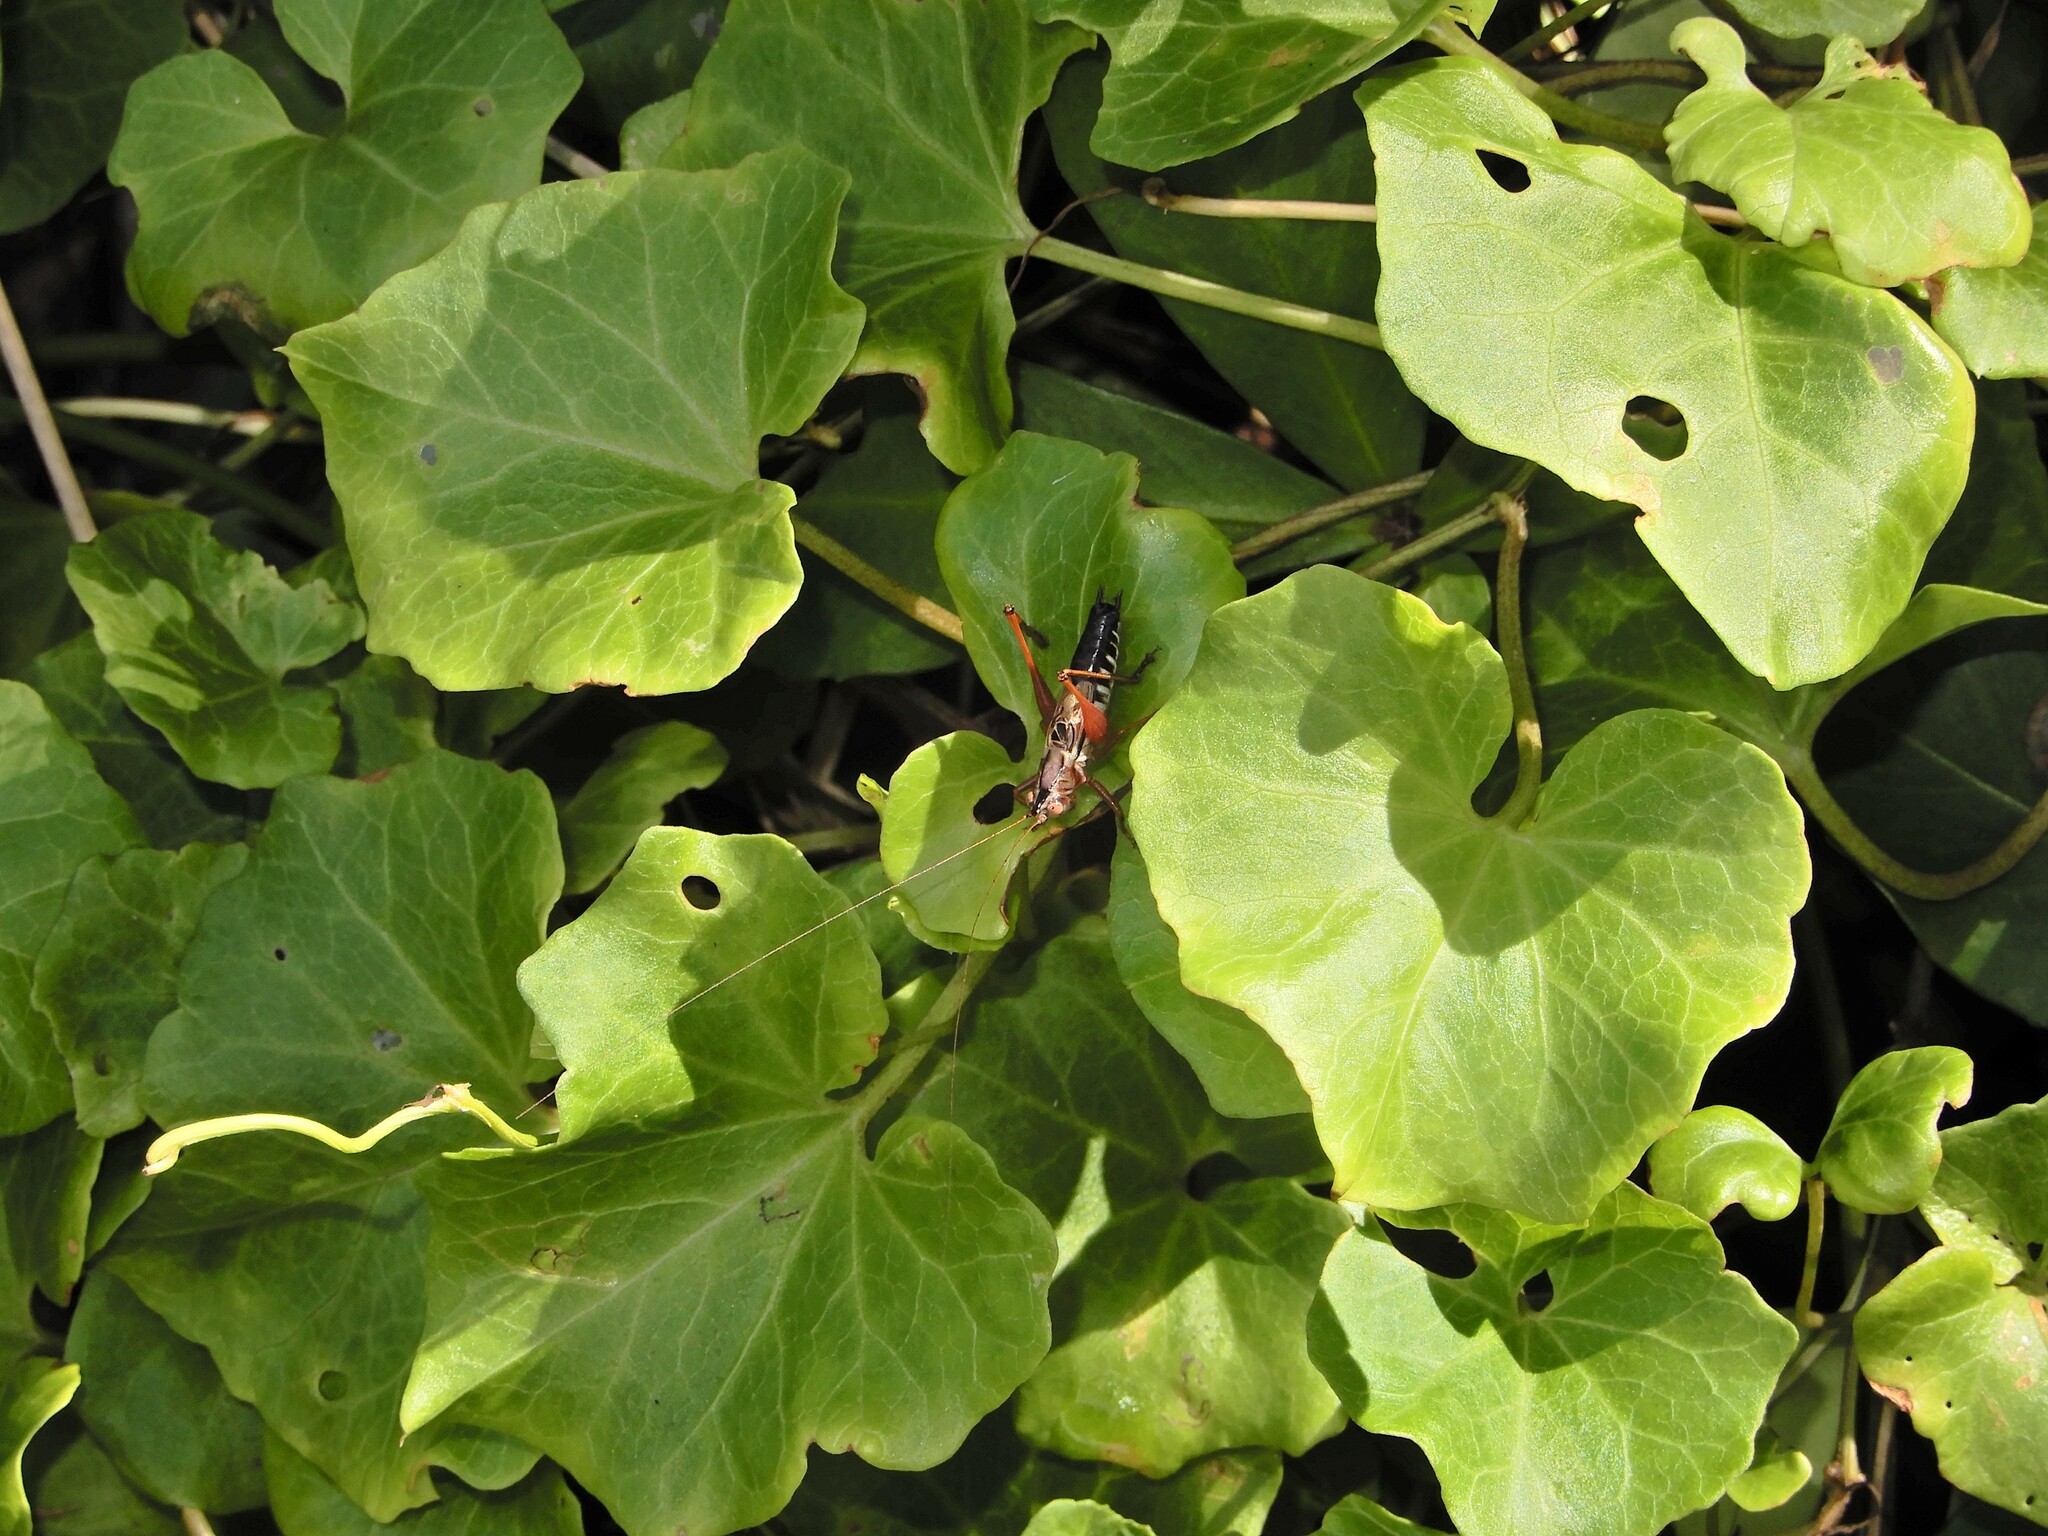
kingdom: Plantae
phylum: Tracheophyta
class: Magnoliopsida
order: Solanales
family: Convolvulaceae
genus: Calystegia
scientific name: Calystegia
